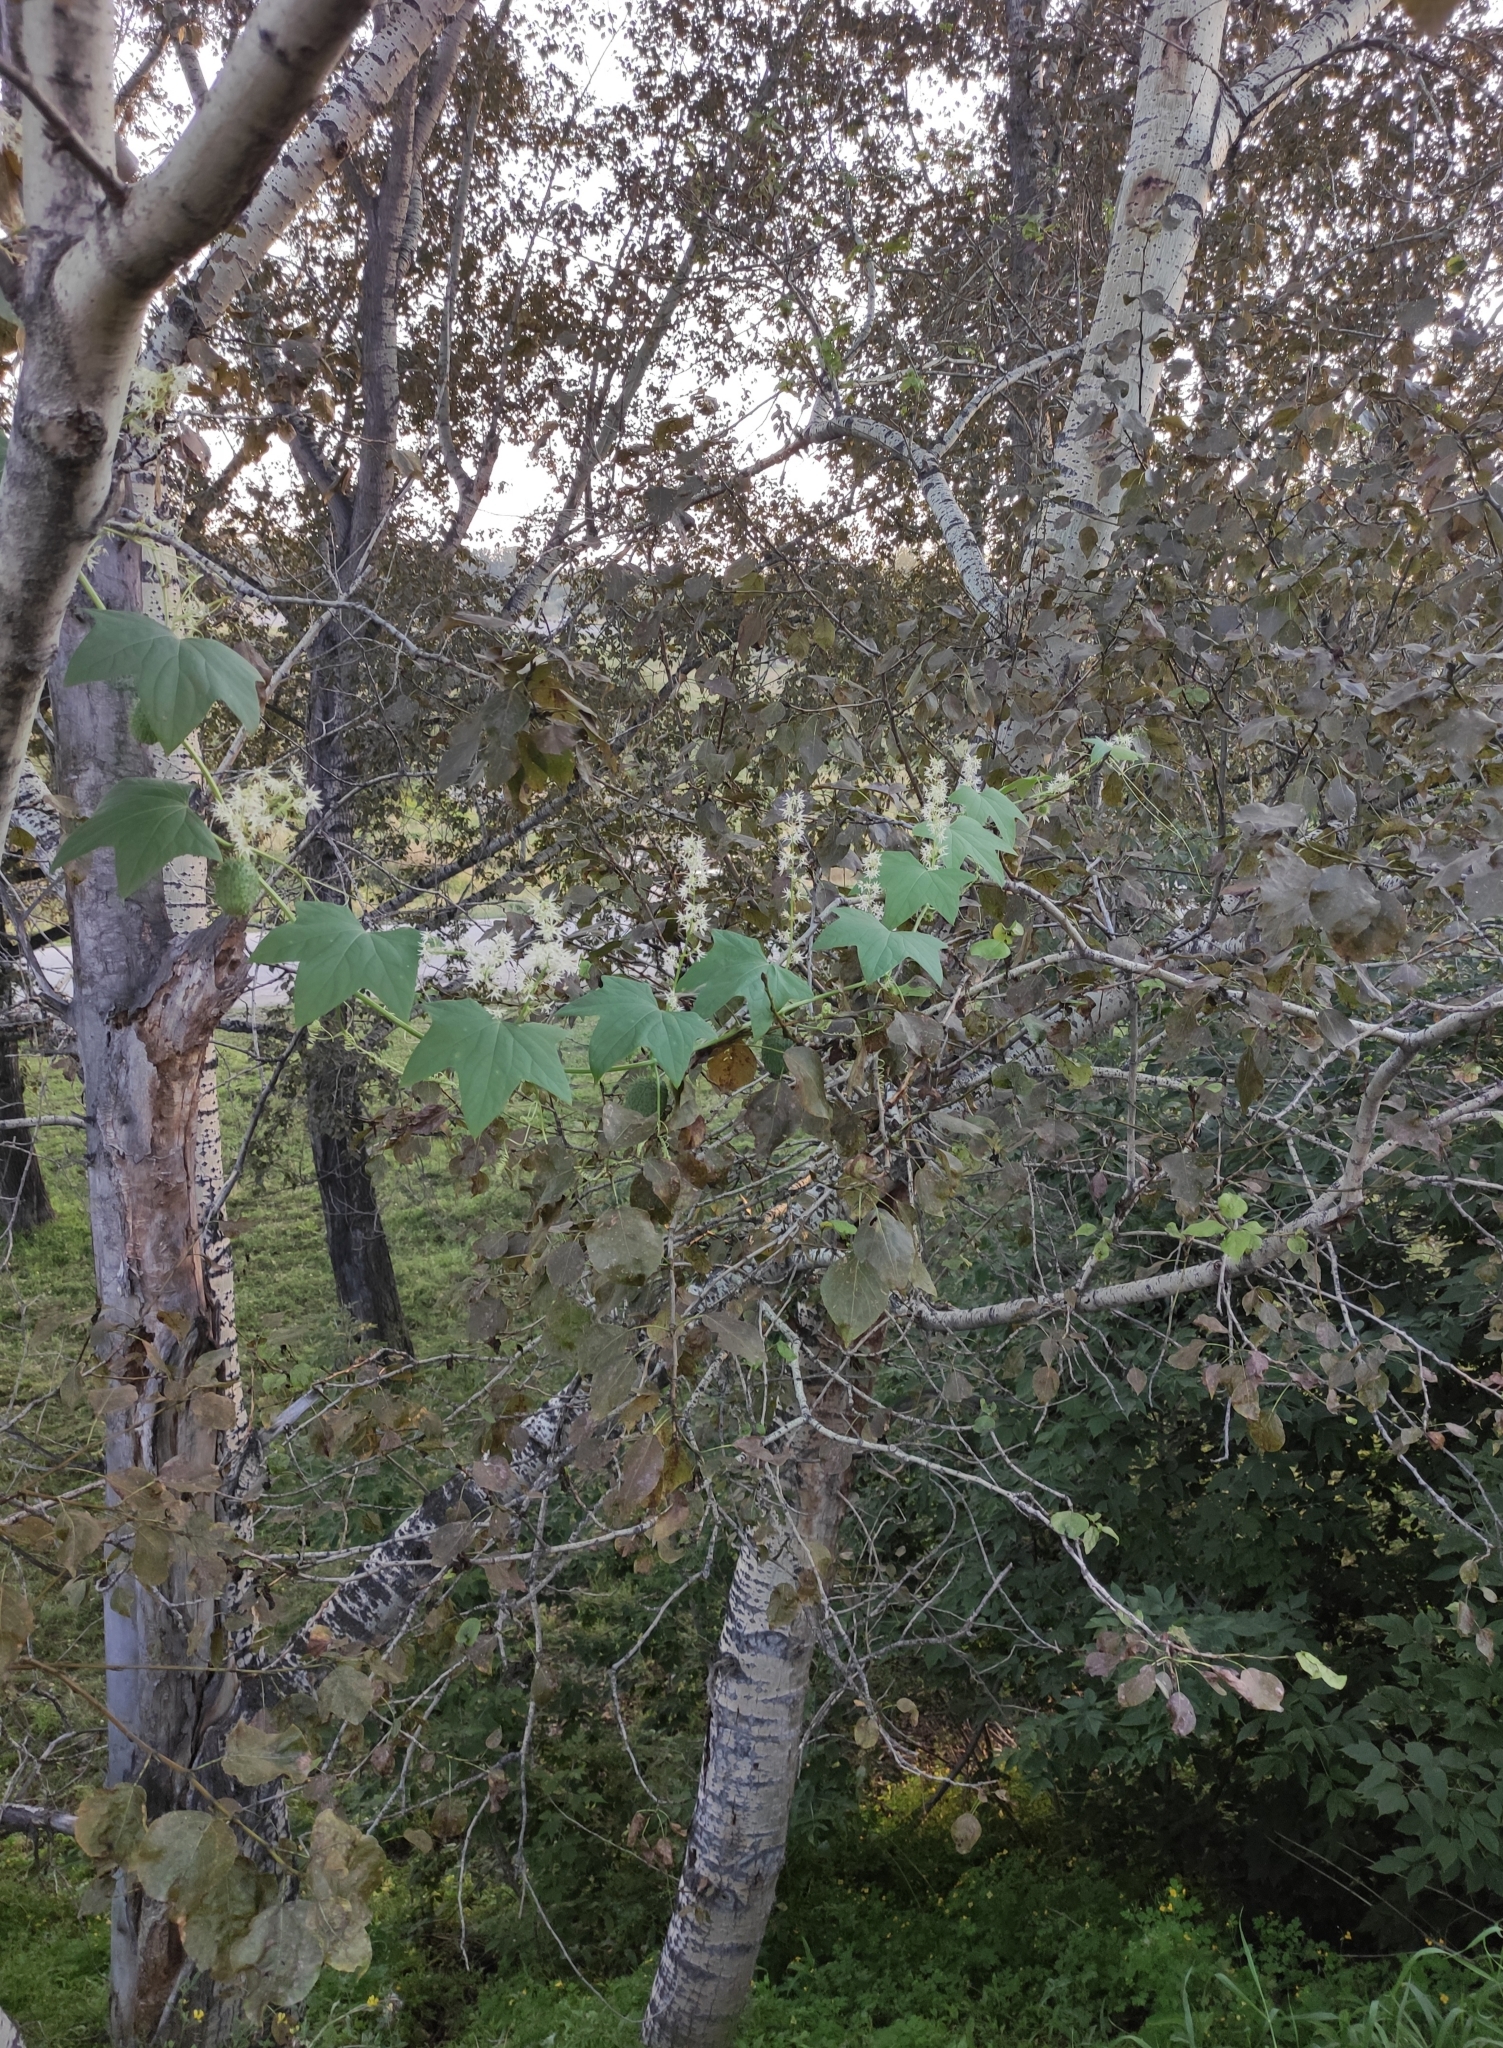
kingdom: Plantae
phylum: Tracheophyta
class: Magnoliopsida
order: Cucurbitales
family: Cucurbitaceae
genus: Echinocystis
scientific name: Echinocystis lobata
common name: Wild cucumber
